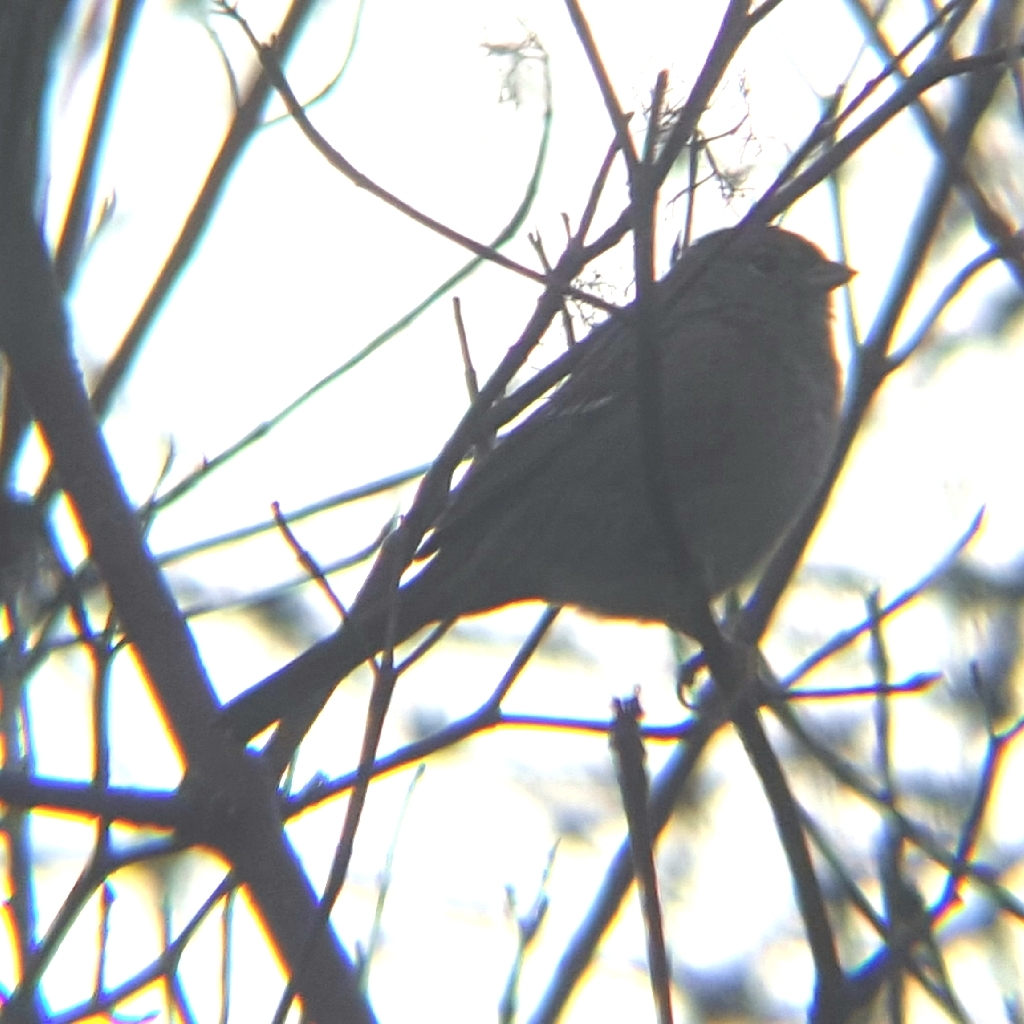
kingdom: Animalia
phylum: Chordata
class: Aves
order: Passeriformes
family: Passerellidae
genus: Zonotrichia
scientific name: Zonotrichia atricapilla
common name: Golden-crowned sparrow
